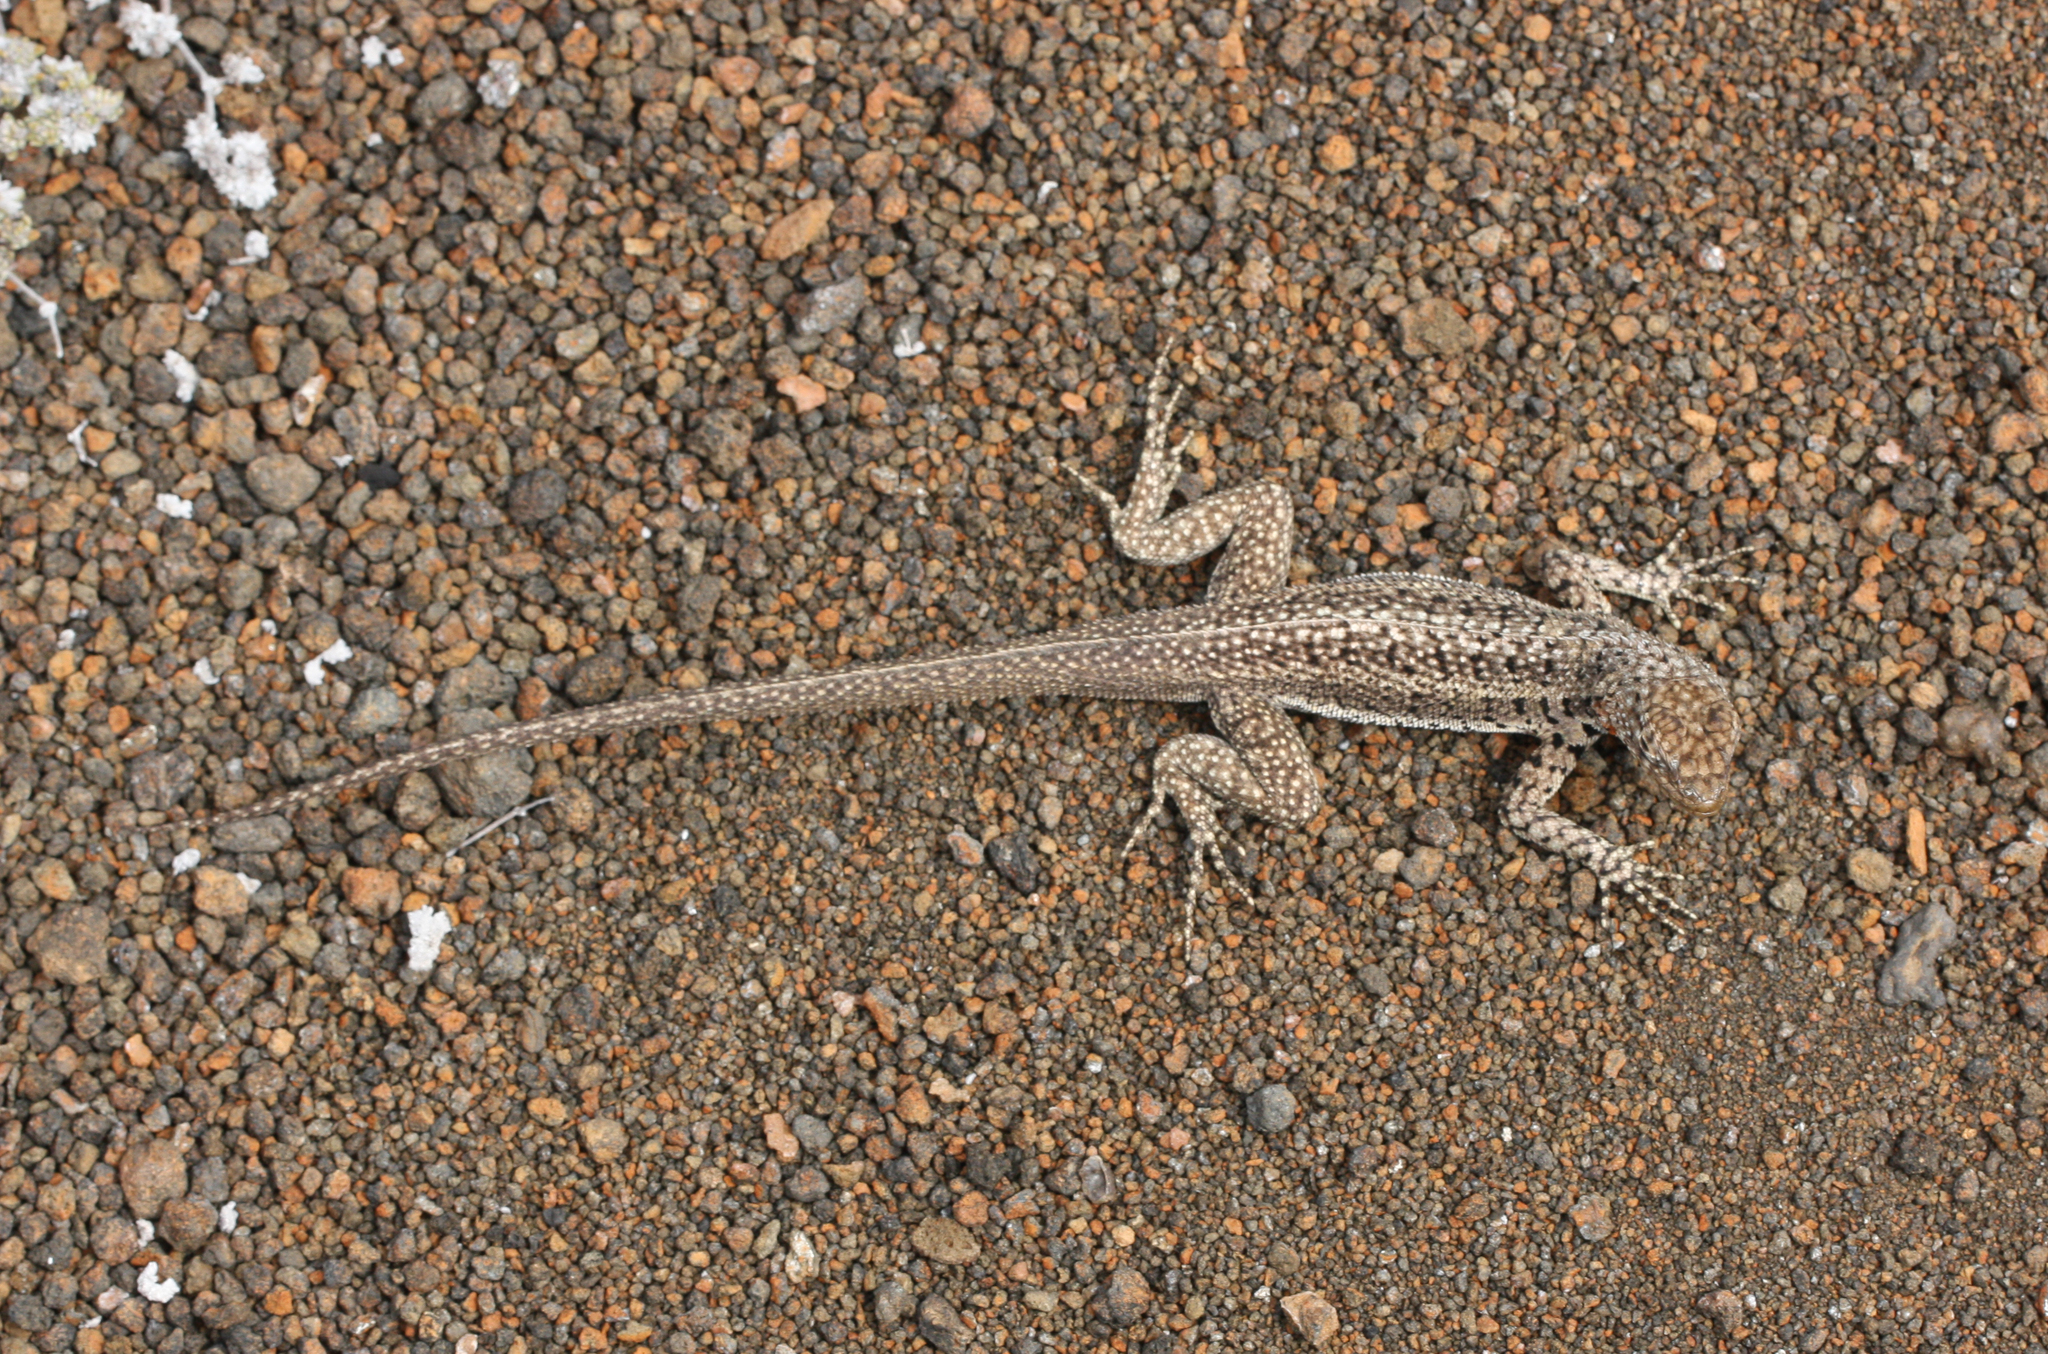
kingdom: Animalia
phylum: Chordata
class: Squamata
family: Tropiduridae
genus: Microlophus
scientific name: Microlophus jacobii
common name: Santiago lava lizard
